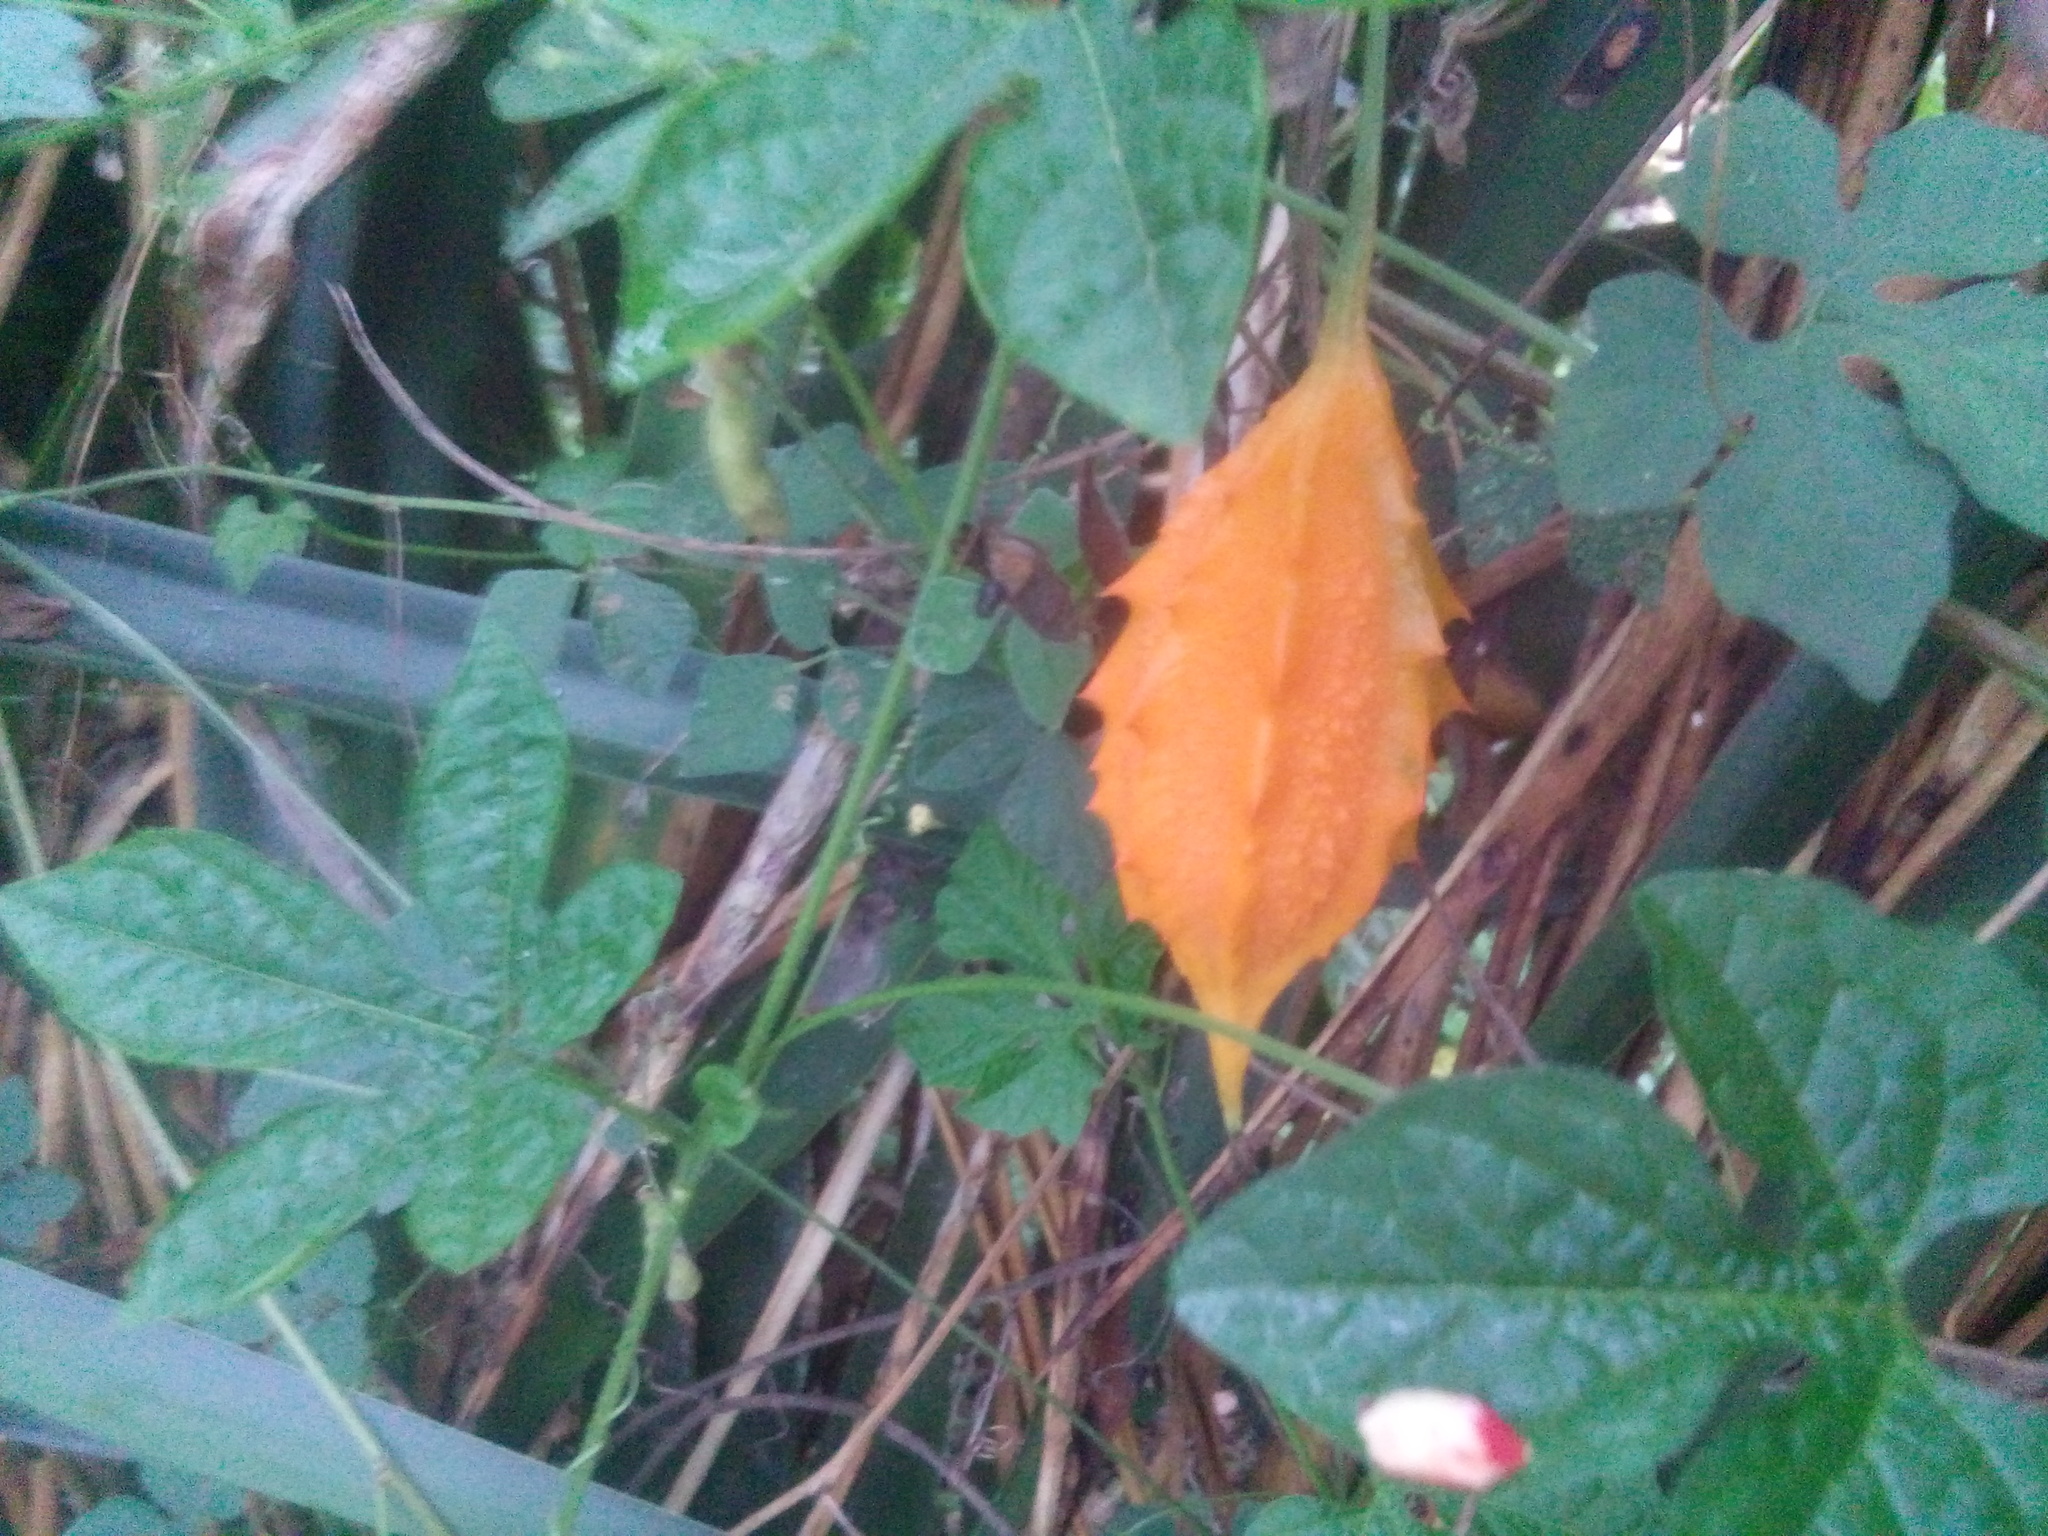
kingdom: Plantae
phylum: Tracheophyta
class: Magnoliopsida
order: Cucurbitales
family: Cucurbitaceae
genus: Momordica
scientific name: Momordica charantia
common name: Balsampear
